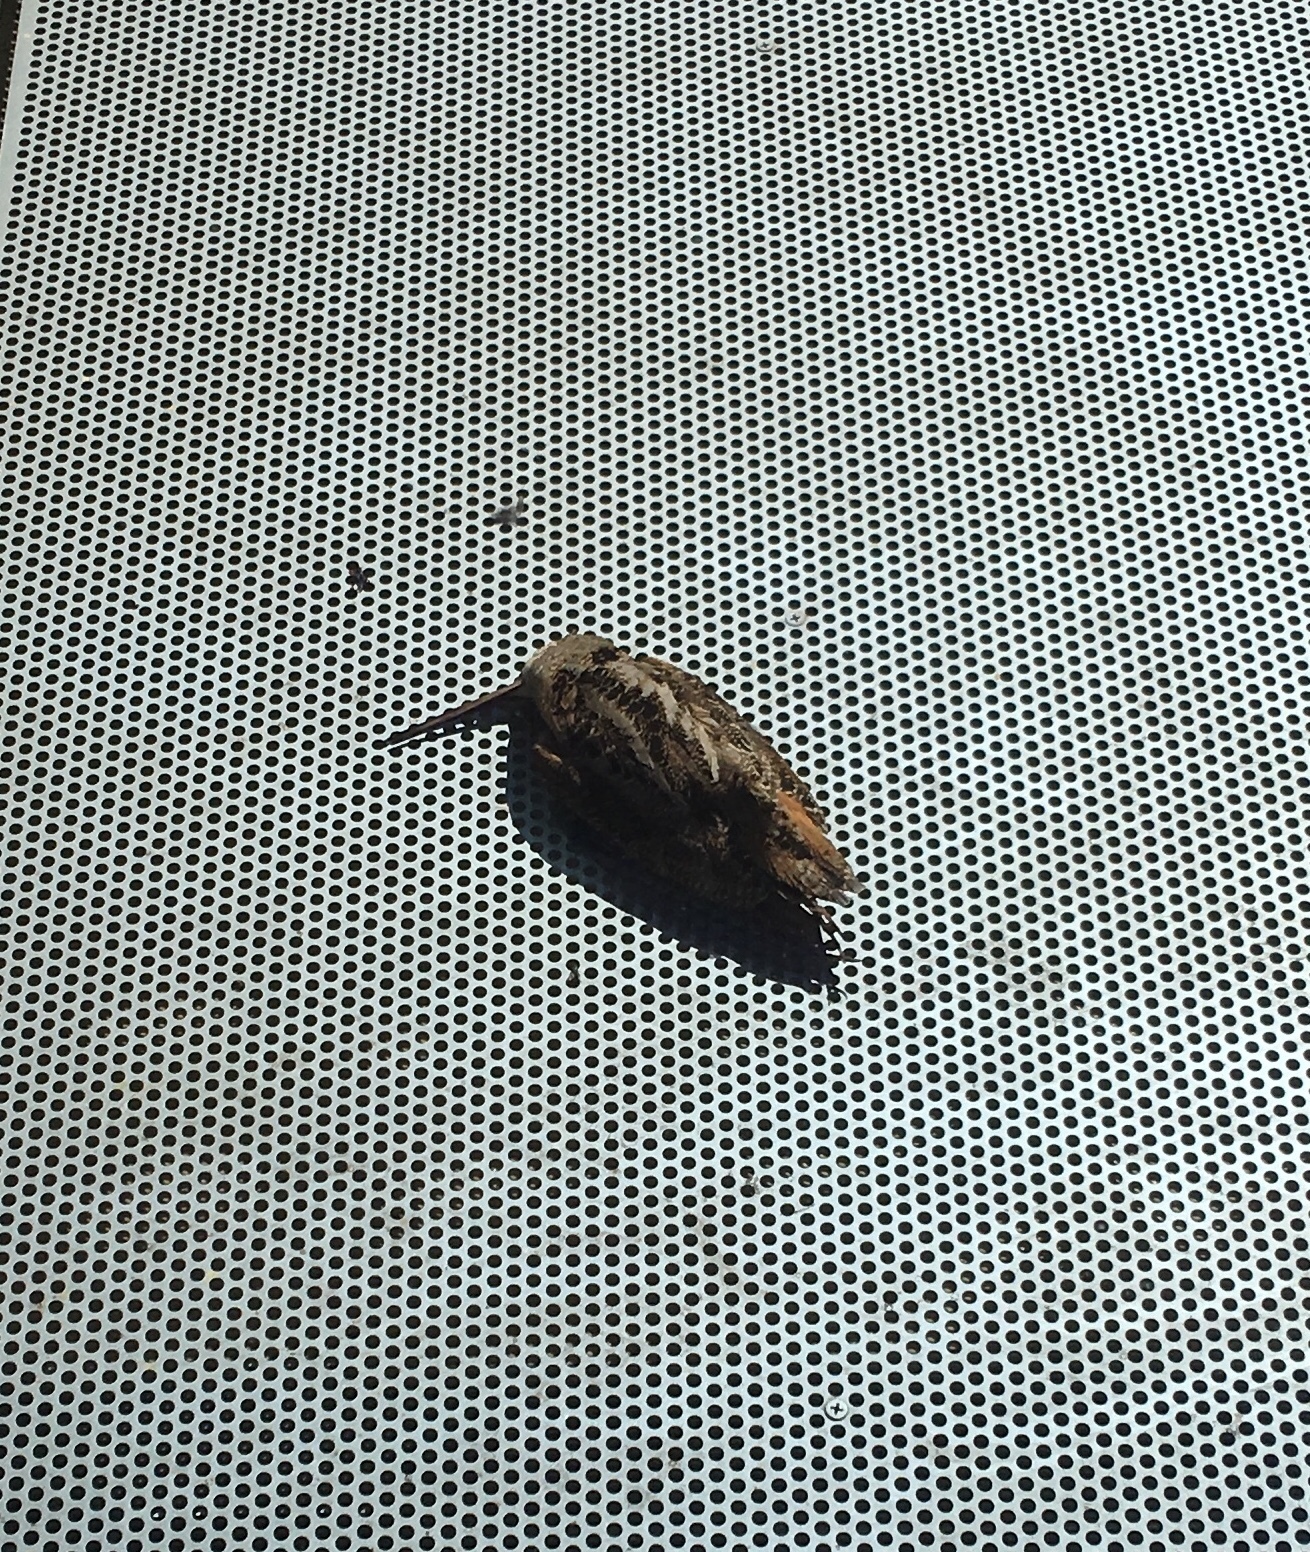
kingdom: Animalia
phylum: Chordata
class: Aves
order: Charadriiformes
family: Scolopacidae
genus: Scolopax
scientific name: Scolopax minor
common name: American woodcock
